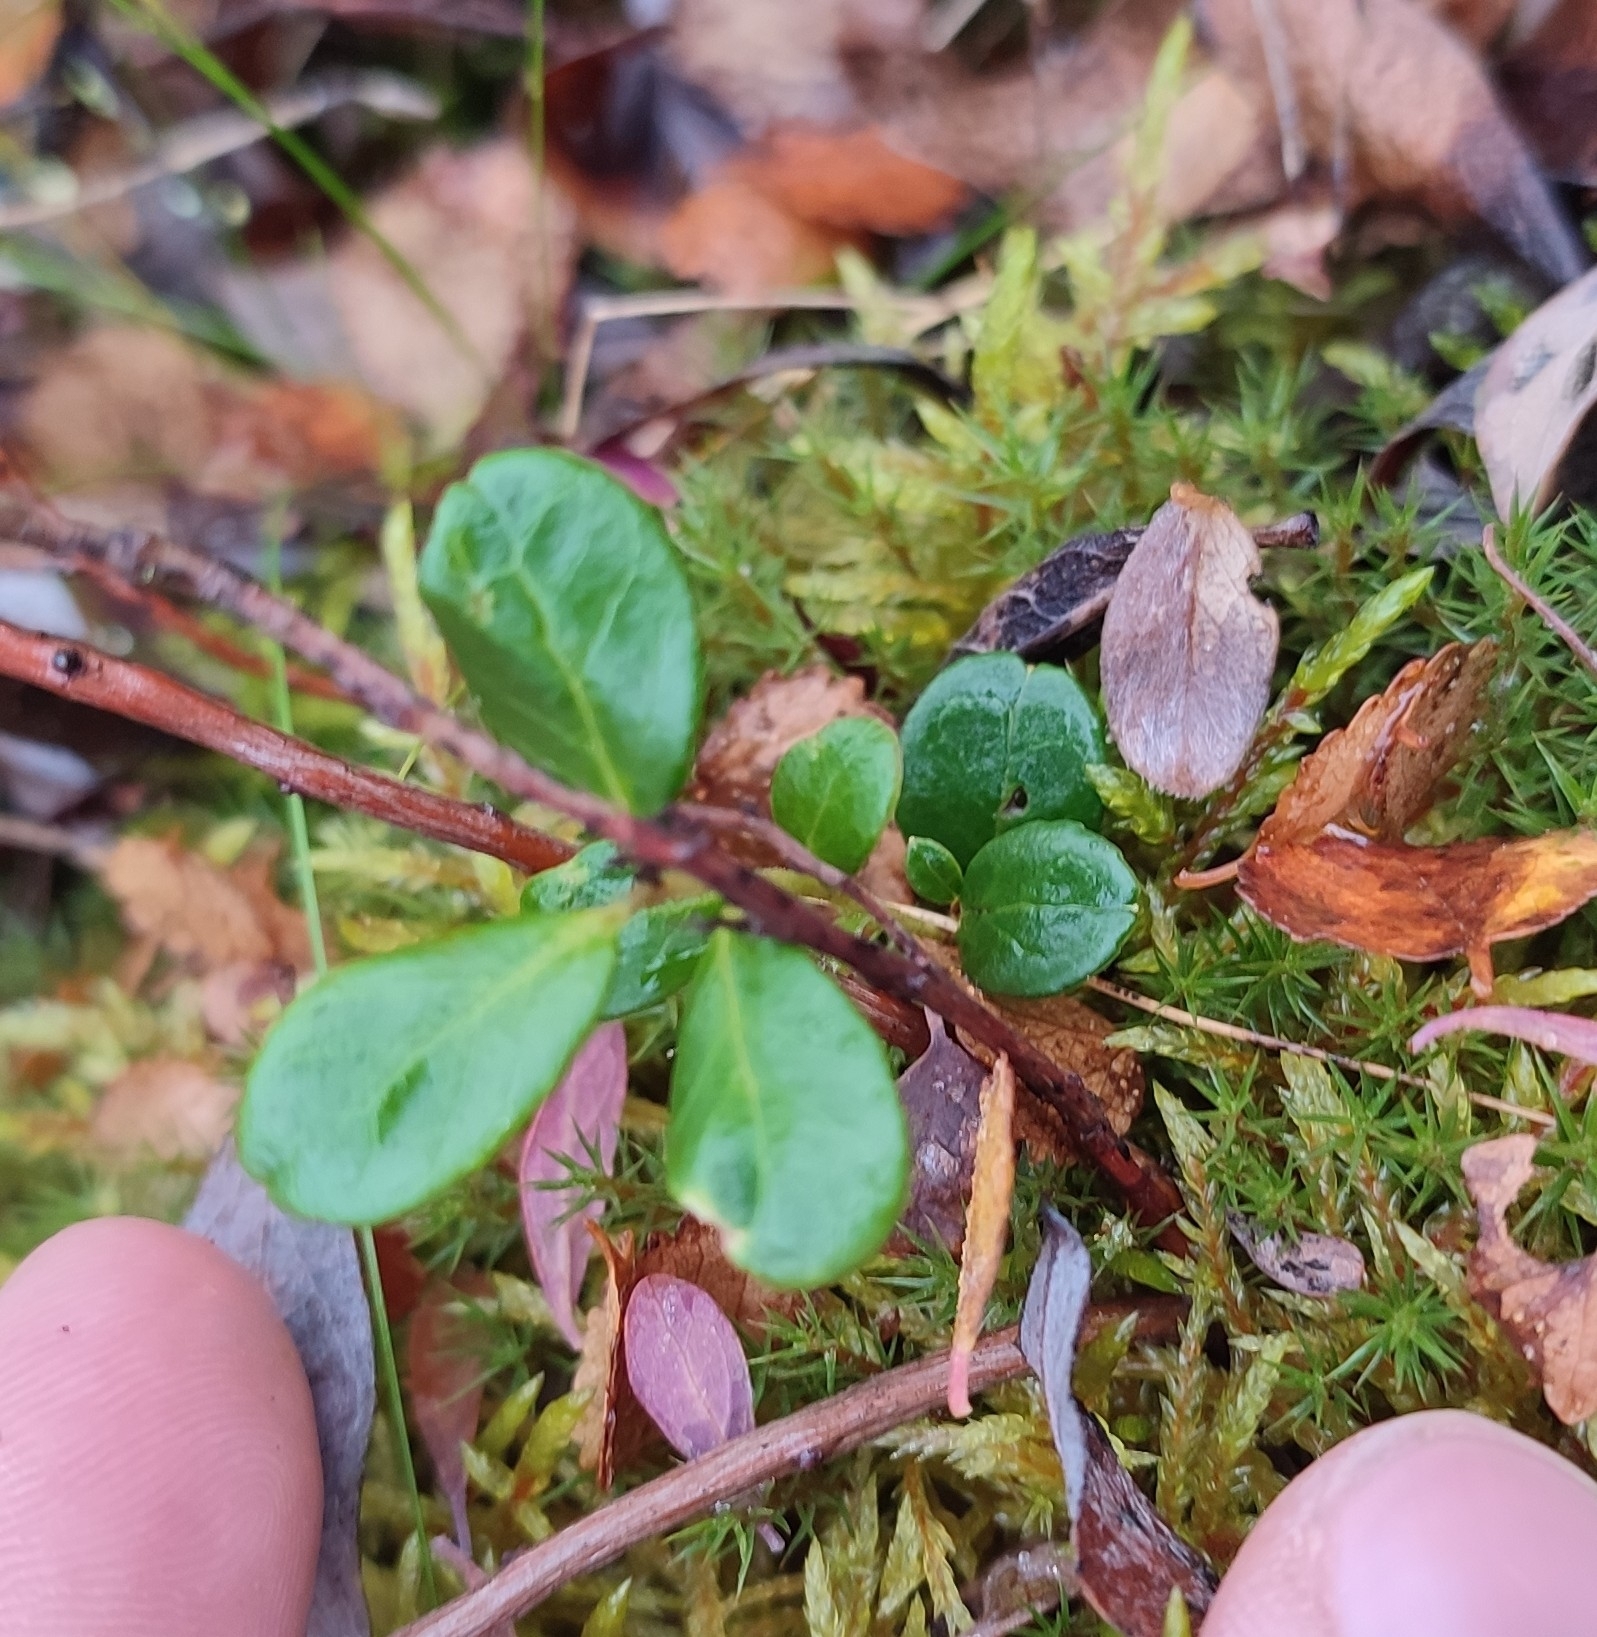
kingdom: Plantae
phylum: Tracheophyta
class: Magnoliopsida
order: Ericales
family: Ericaceae
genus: Vaccinium
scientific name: Vaccinium vitis-idaea
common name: Cowberry
